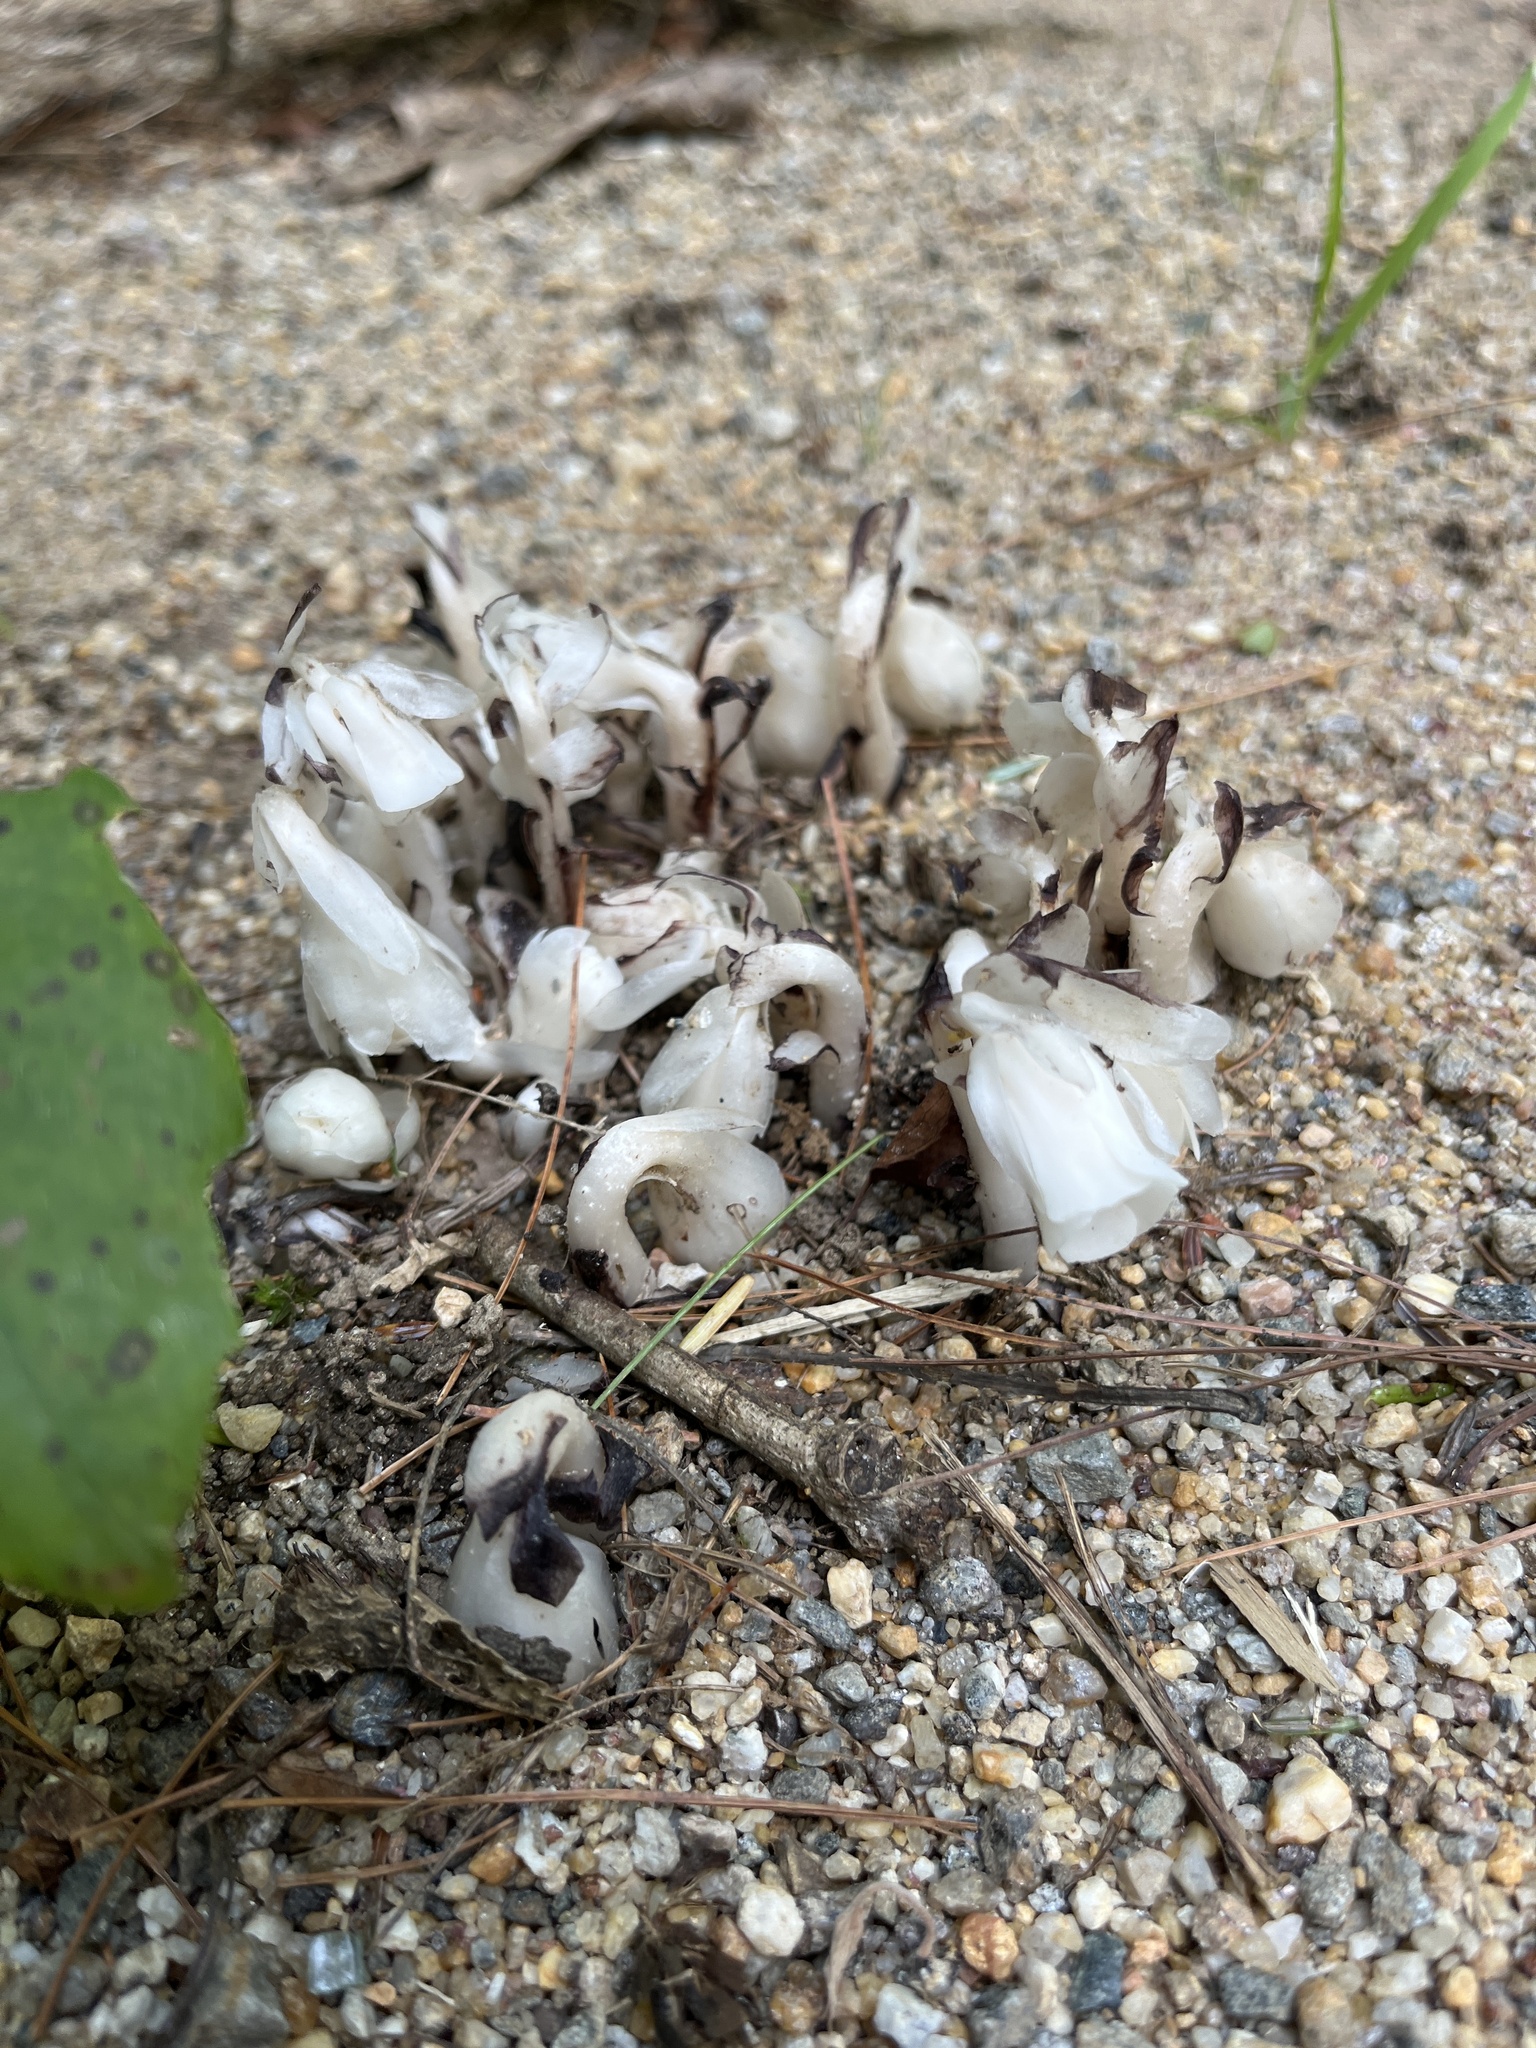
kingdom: Plantae
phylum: Tracheophyta
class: Magnoliopsida
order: Ericales
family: Ericaceae
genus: Monotropa
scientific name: Monotropa uniflora
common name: Convulsion root
